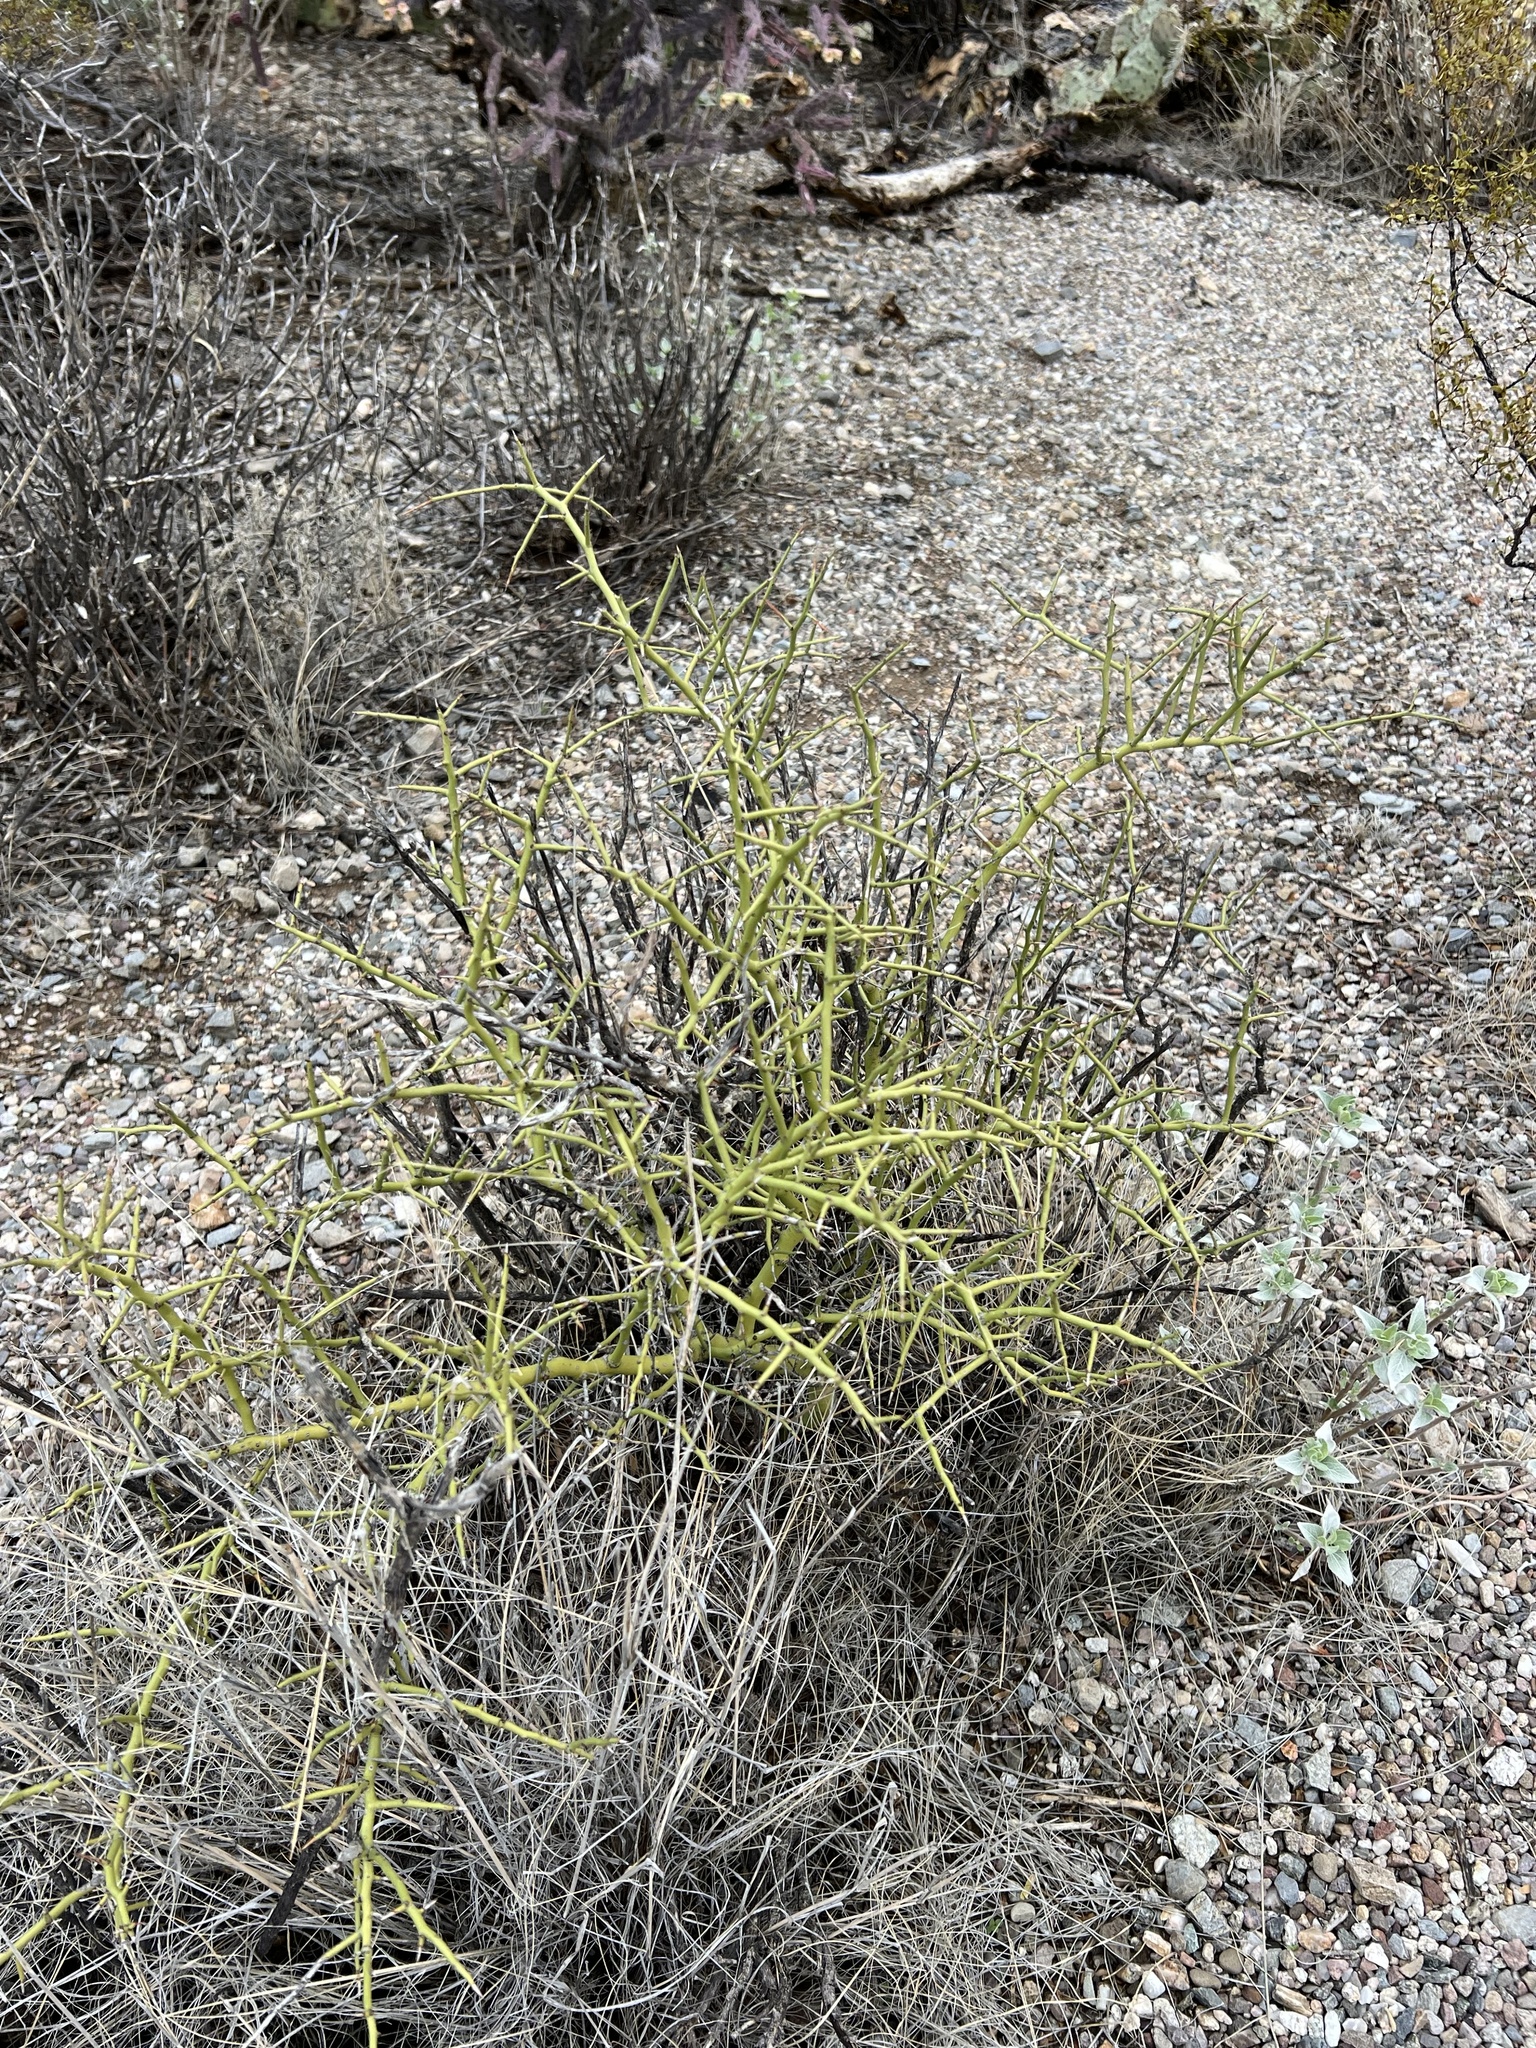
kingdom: Plantae
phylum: Tracheophyta
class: Magnoliopsida
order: Fabales
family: Fabaceae
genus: Parkinsonia
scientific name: Parkinsonia microphylla
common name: Yellow paloverde
